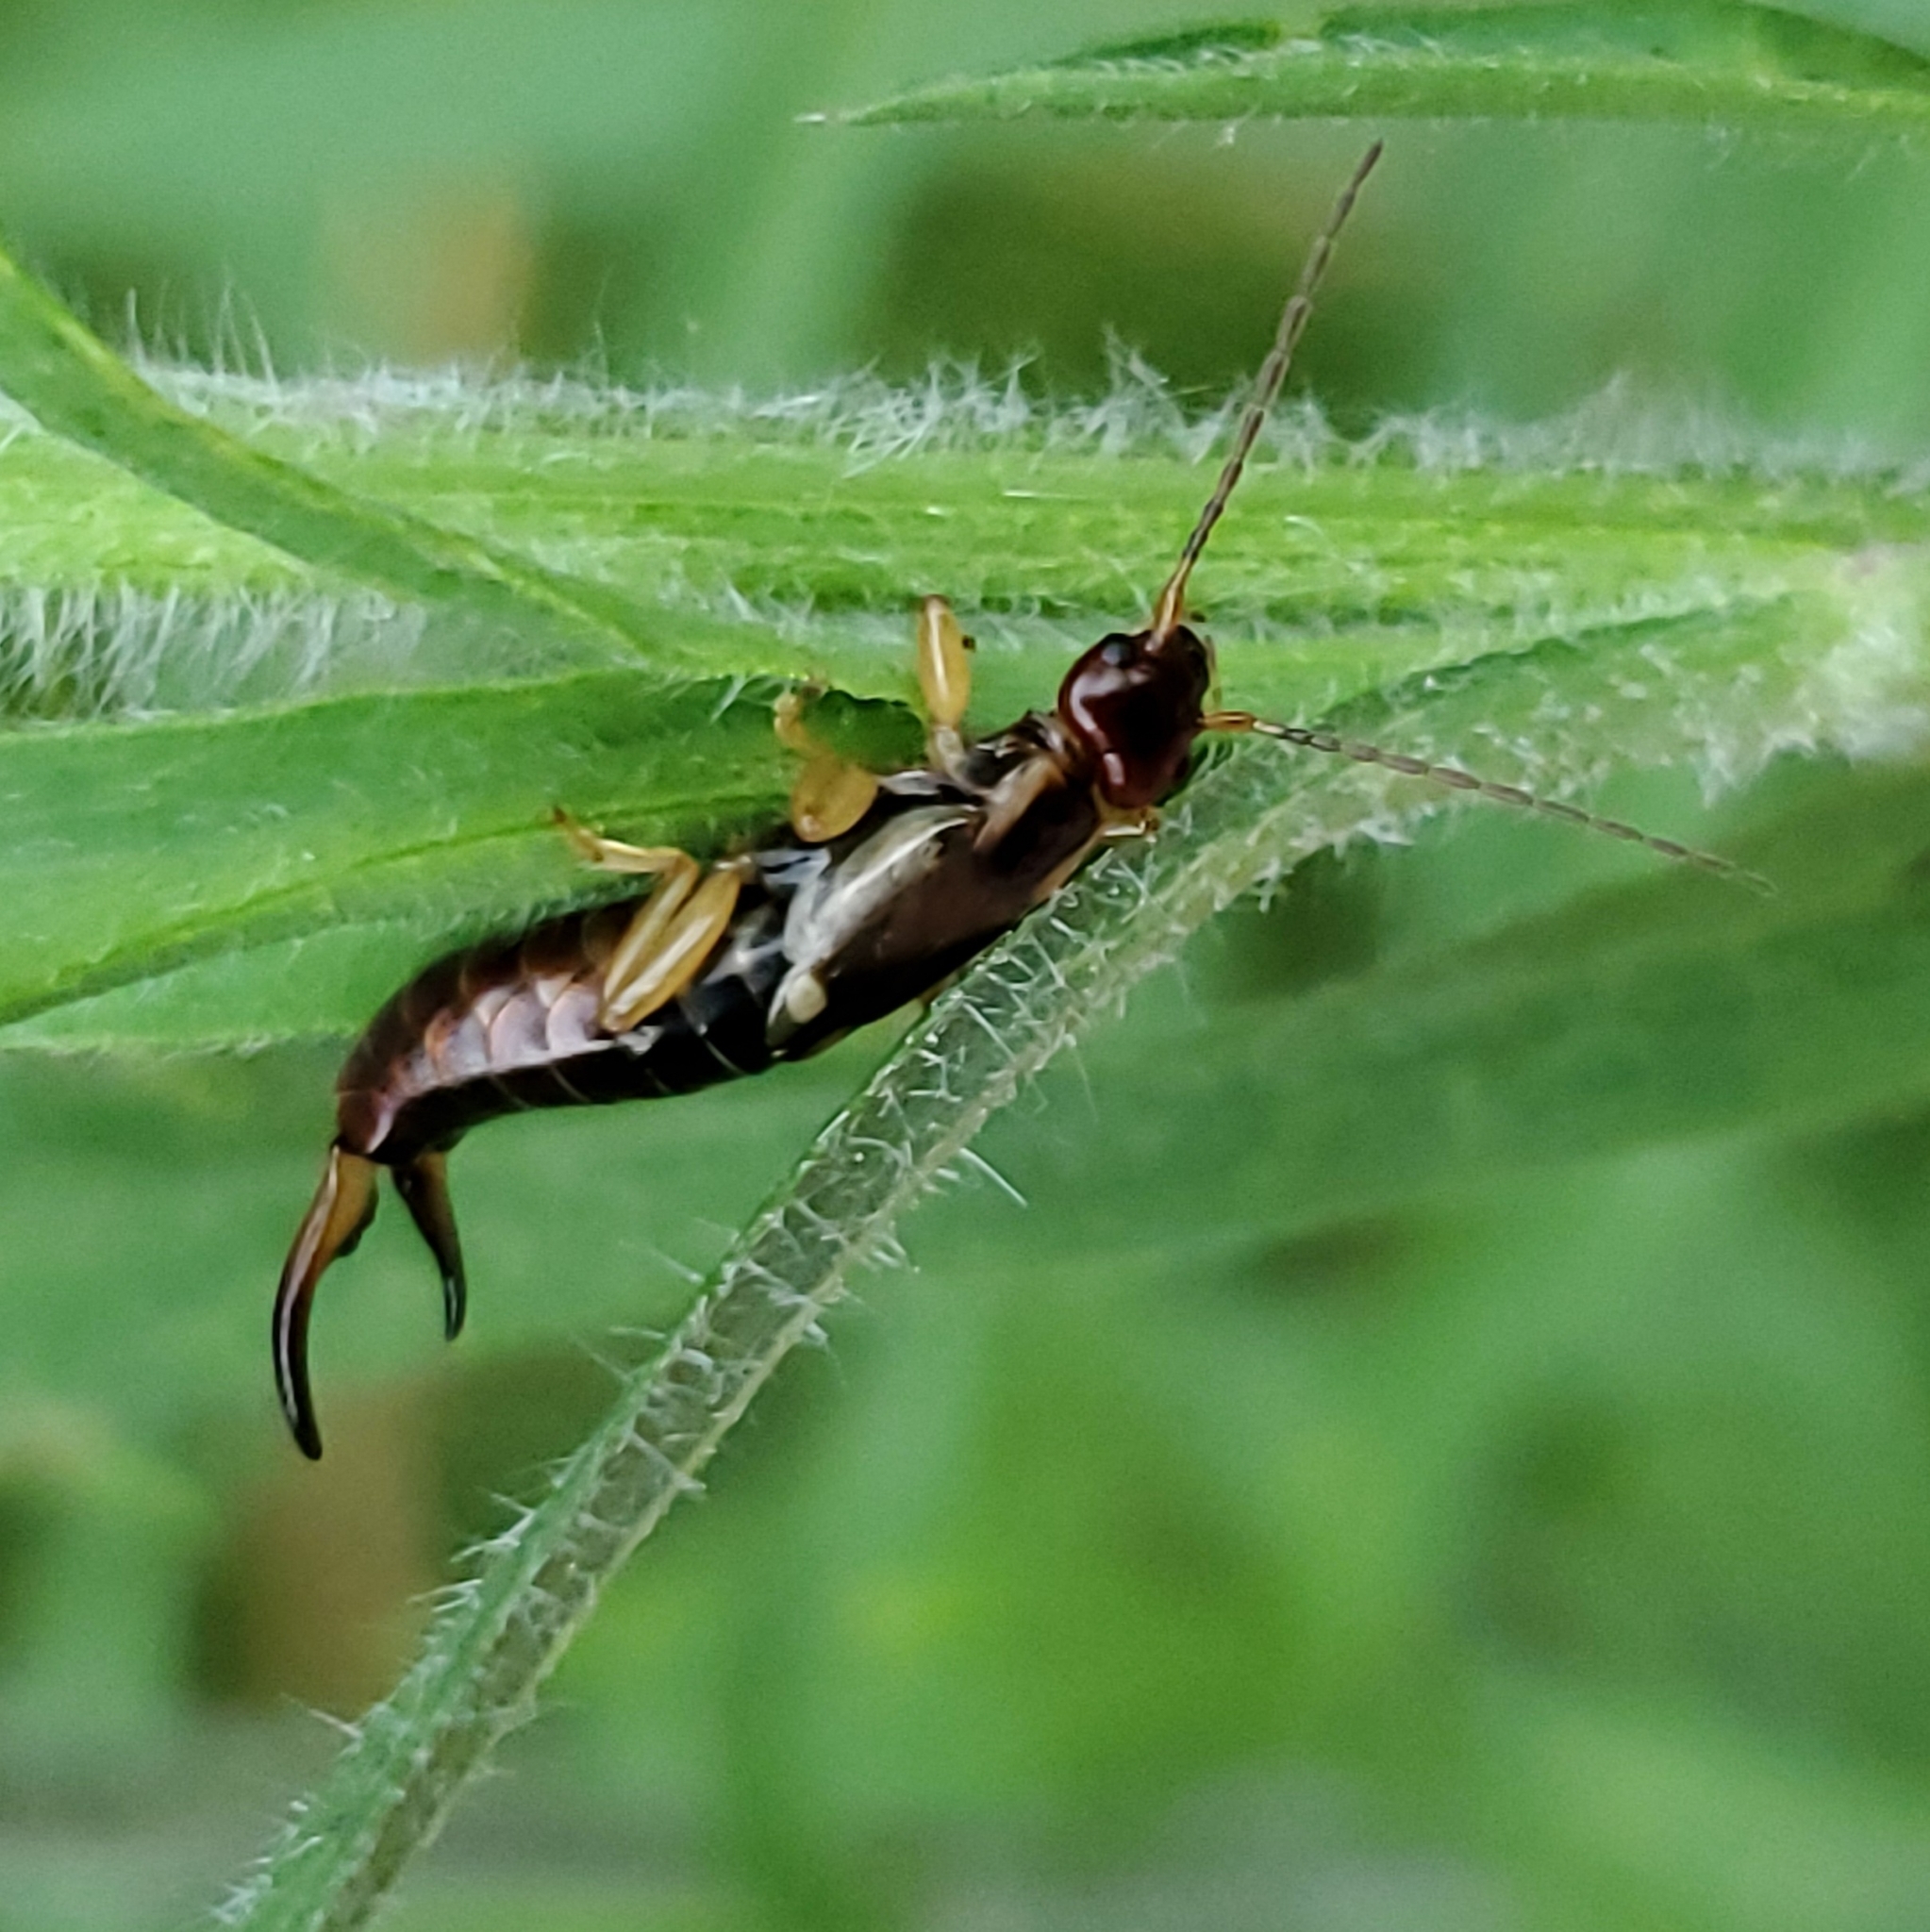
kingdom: Animalia
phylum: Arthropoda
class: Insecta
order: Dermaptera
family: Forficulidae
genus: Forficula
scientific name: Forficula
